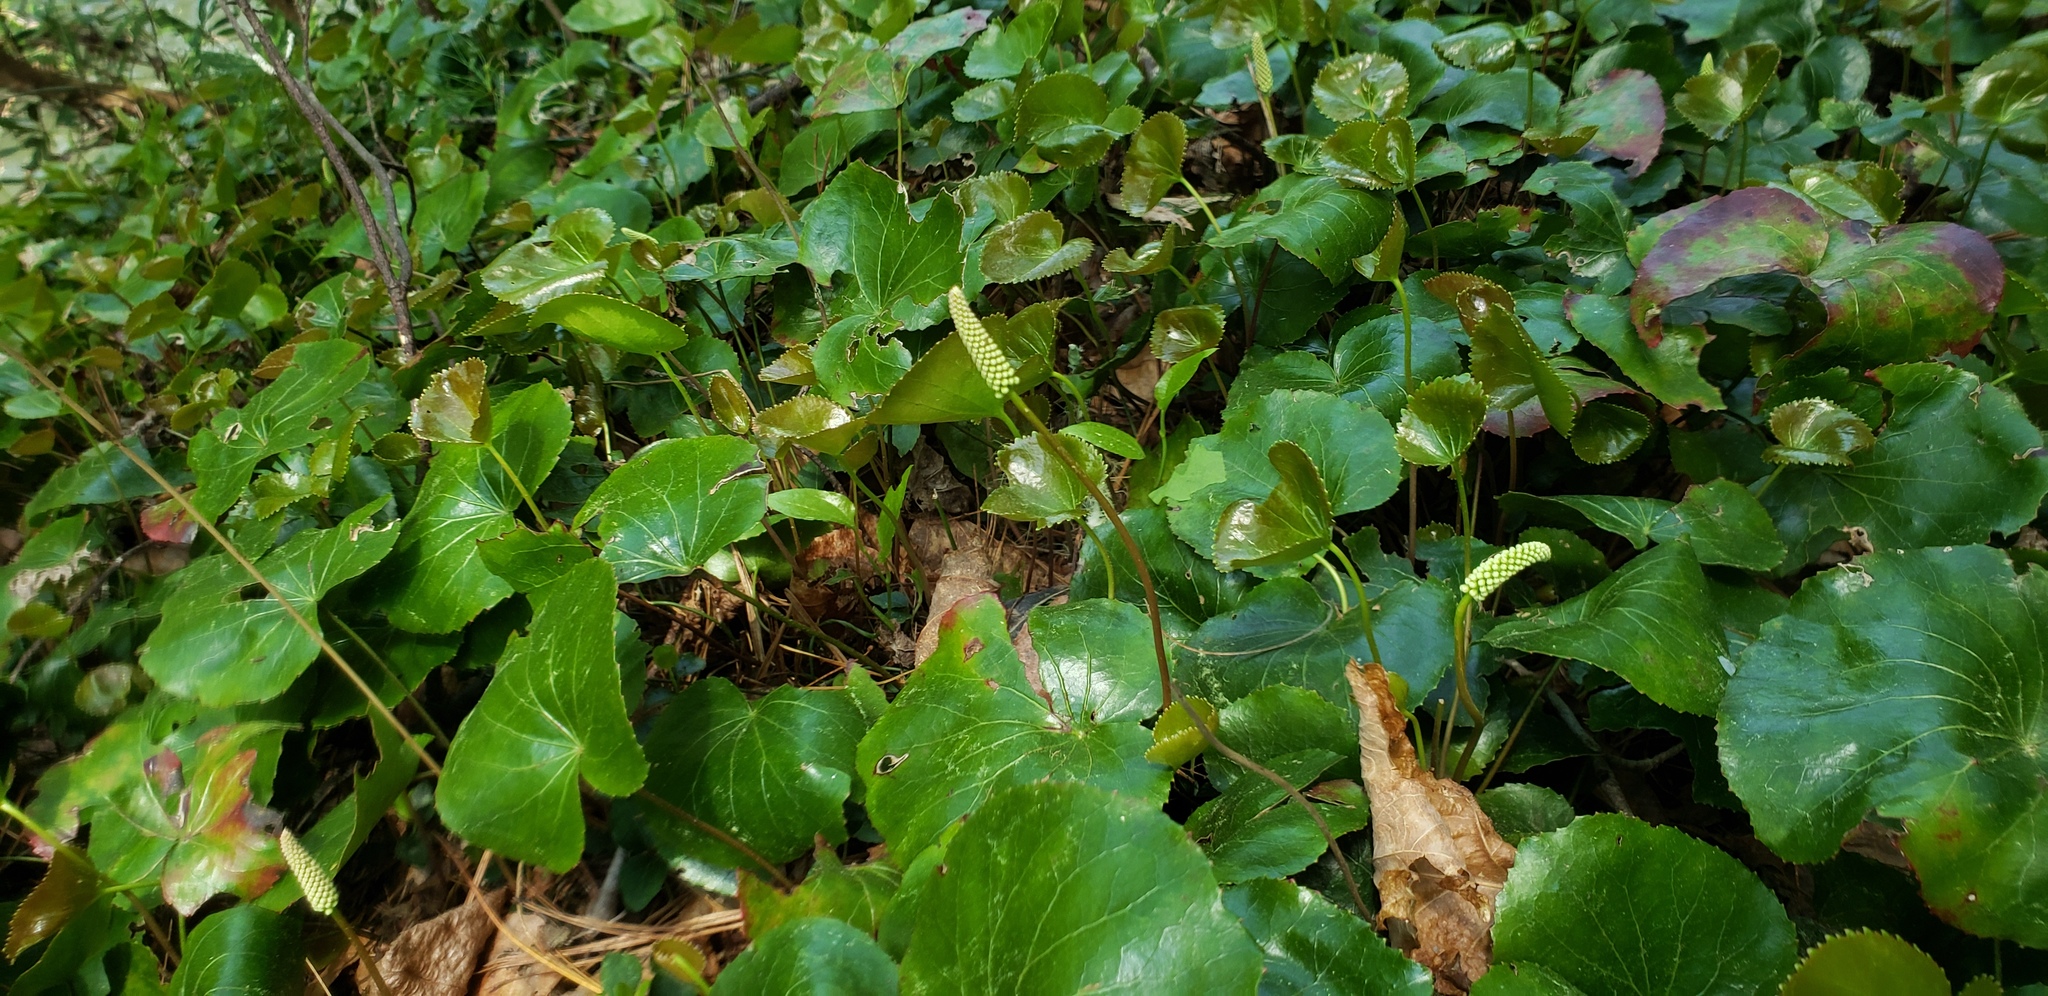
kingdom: Plantae
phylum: Tracheophyta
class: Magnoliopsida
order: Ericales
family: Diapensiaceae
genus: Galax
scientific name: Galax urceolata
